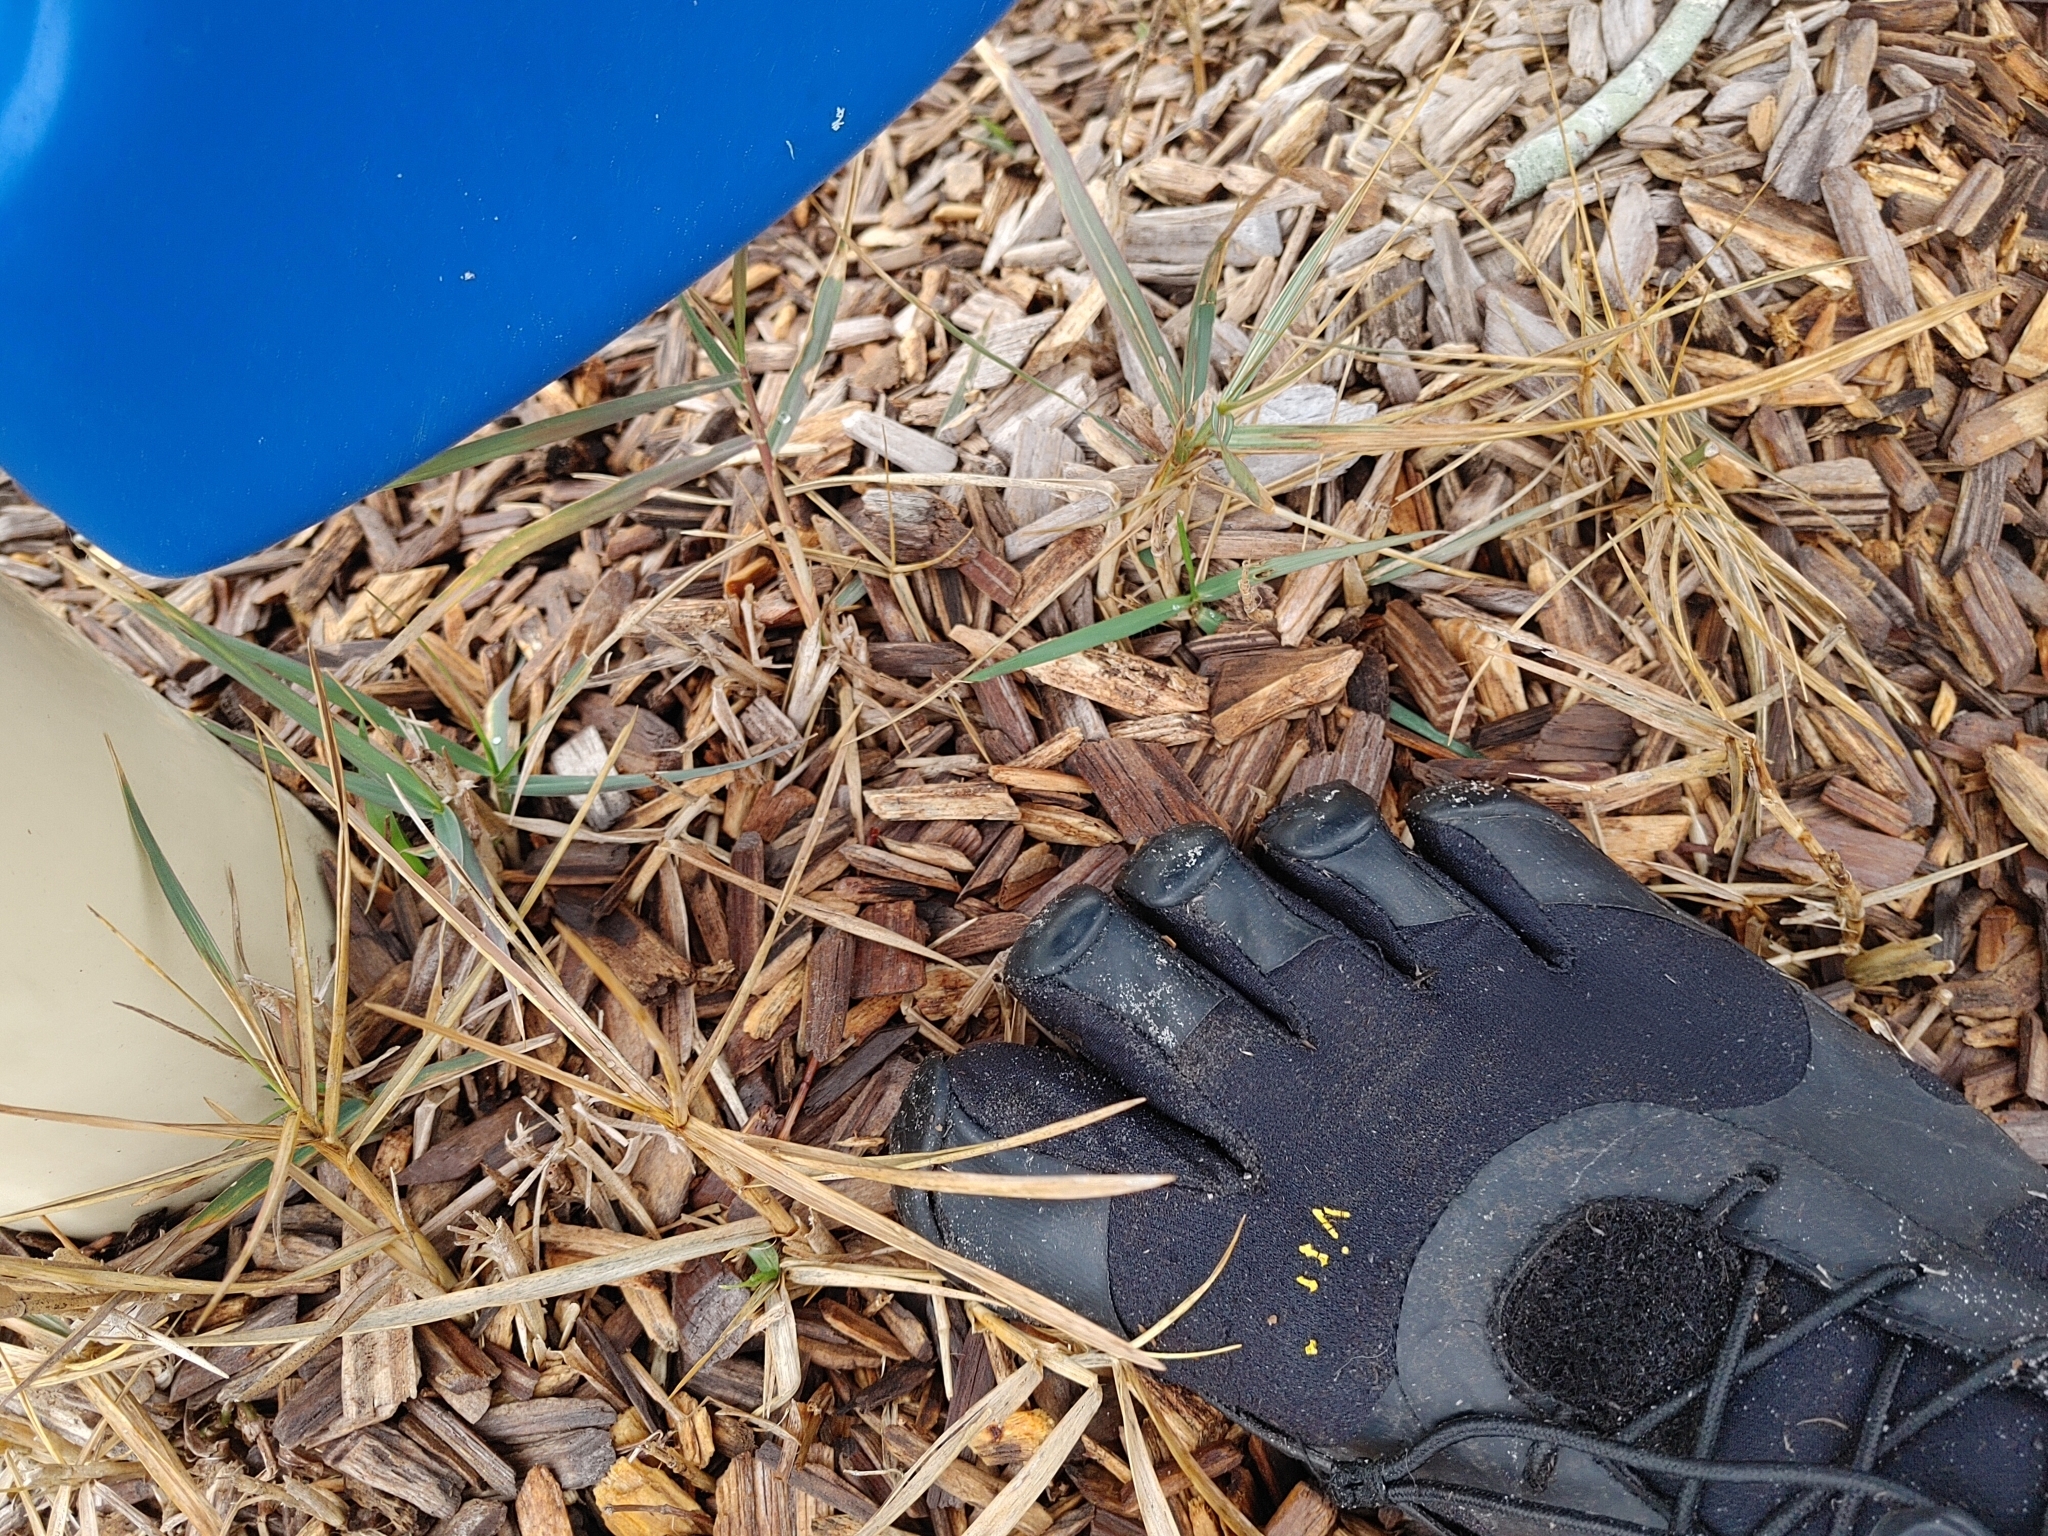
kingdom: Plantae
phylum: Tracheophyta
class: Liliopsida
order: Poales
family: Poaceae
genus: Panicum
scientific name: Panicum repens
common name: Torpedo grass
